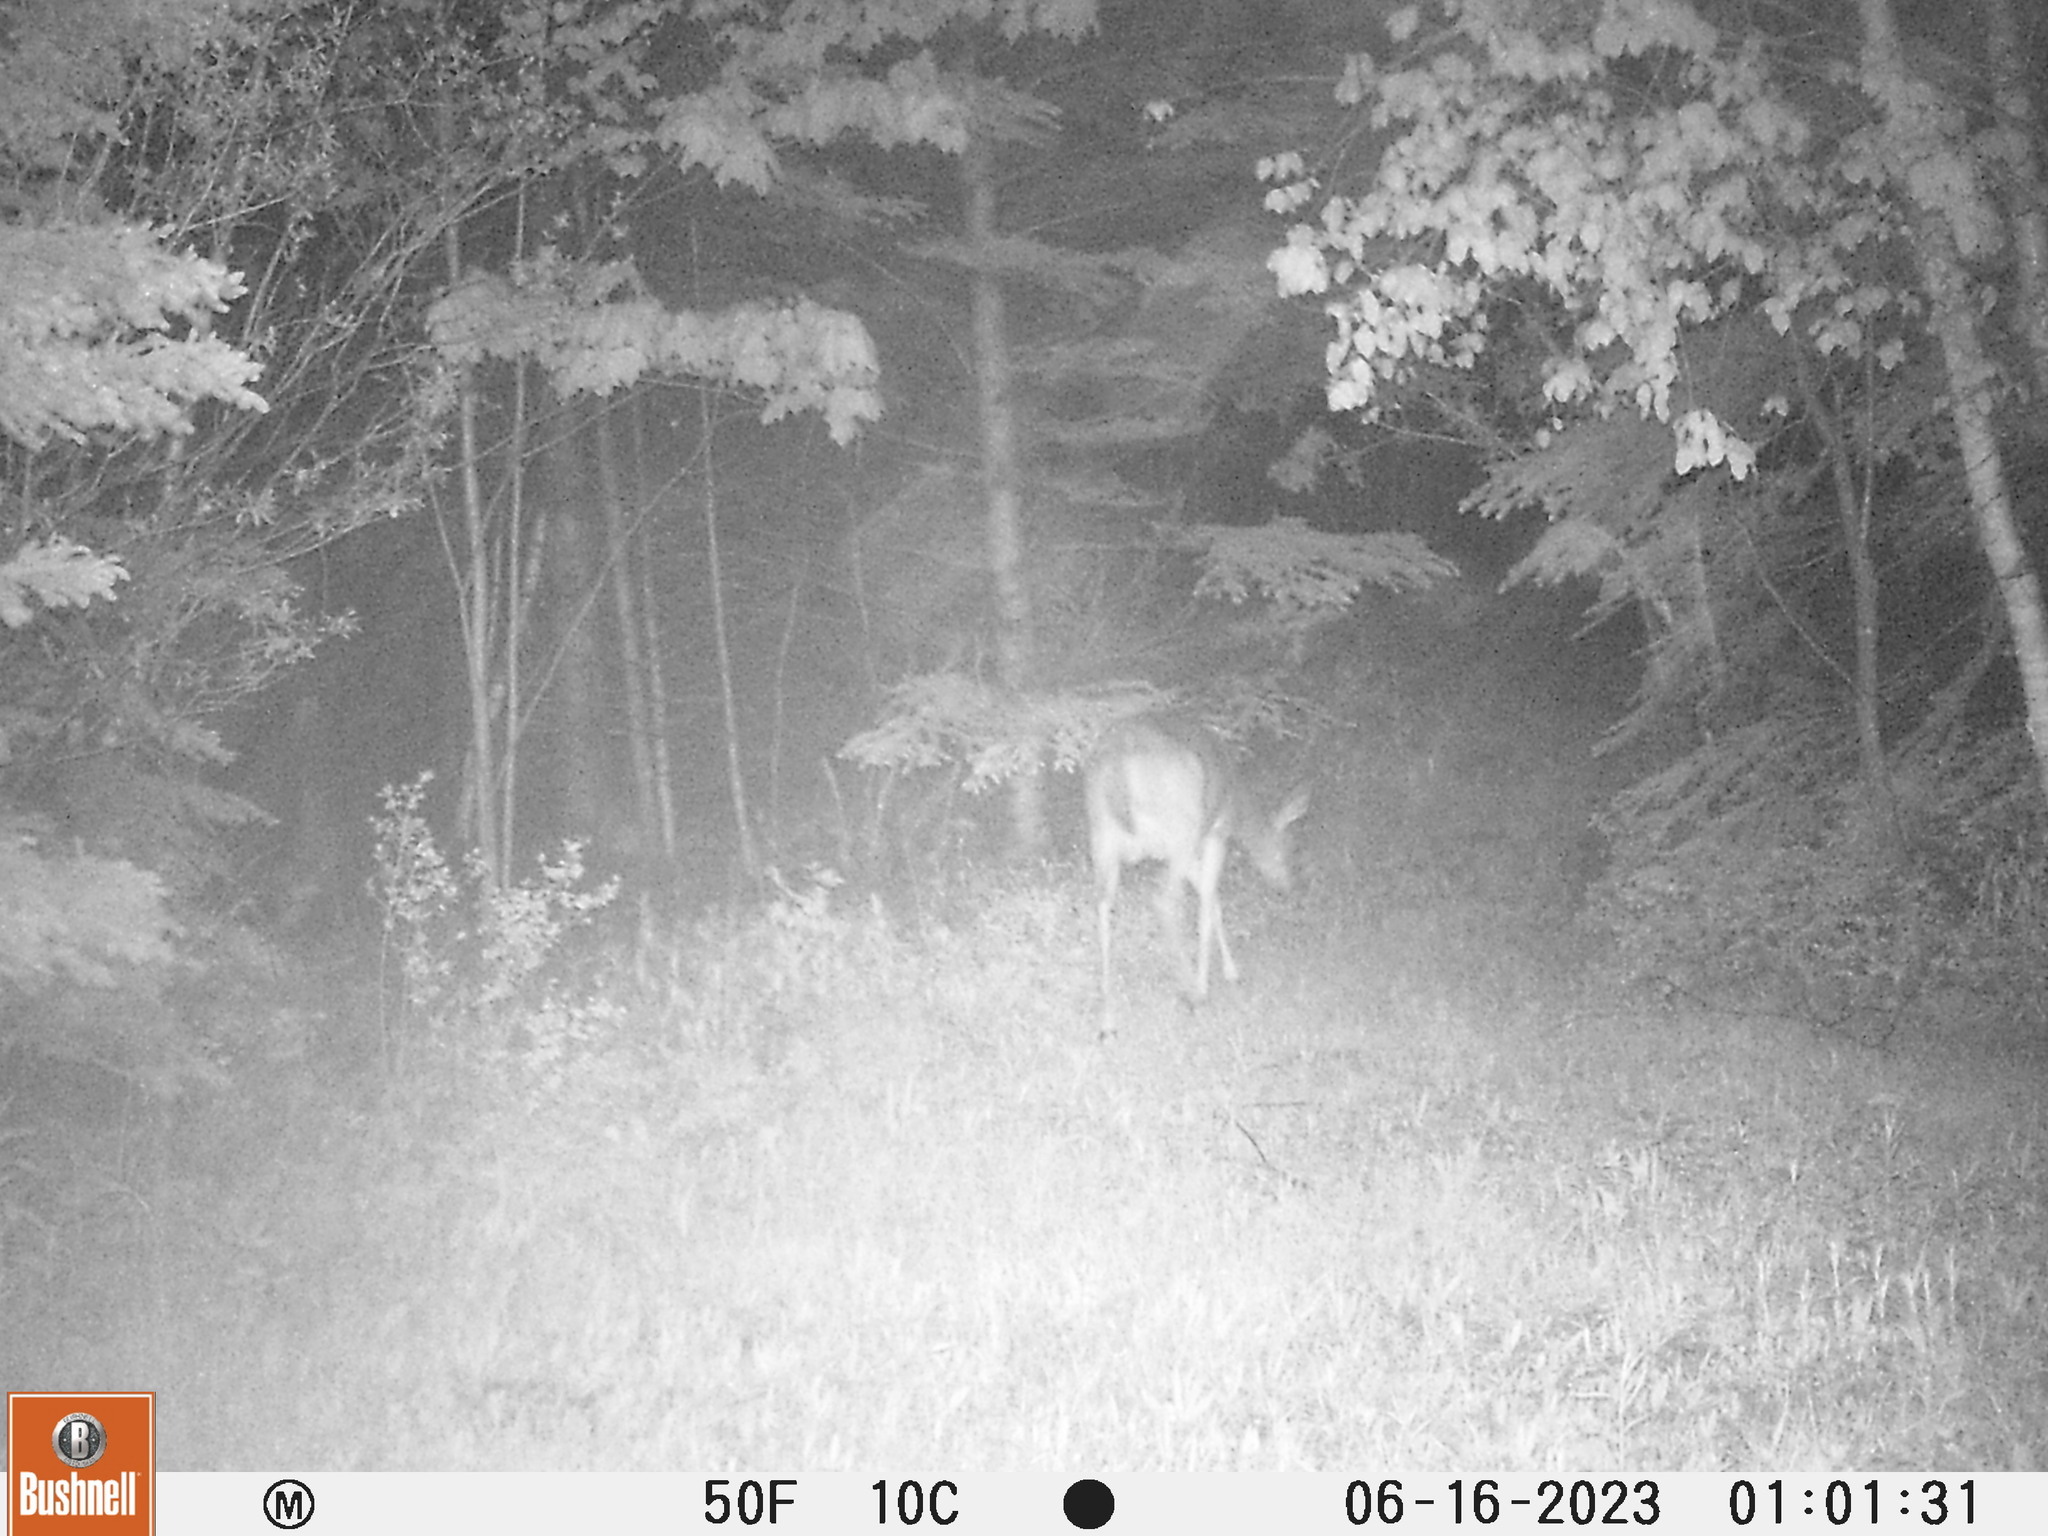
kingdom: Animalia
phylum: Chordata
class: Mammalia
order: Artiodactyla
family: Cervidae
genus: Odocoileus
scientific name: Odocoileus virginianus
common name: White-tailed deer
